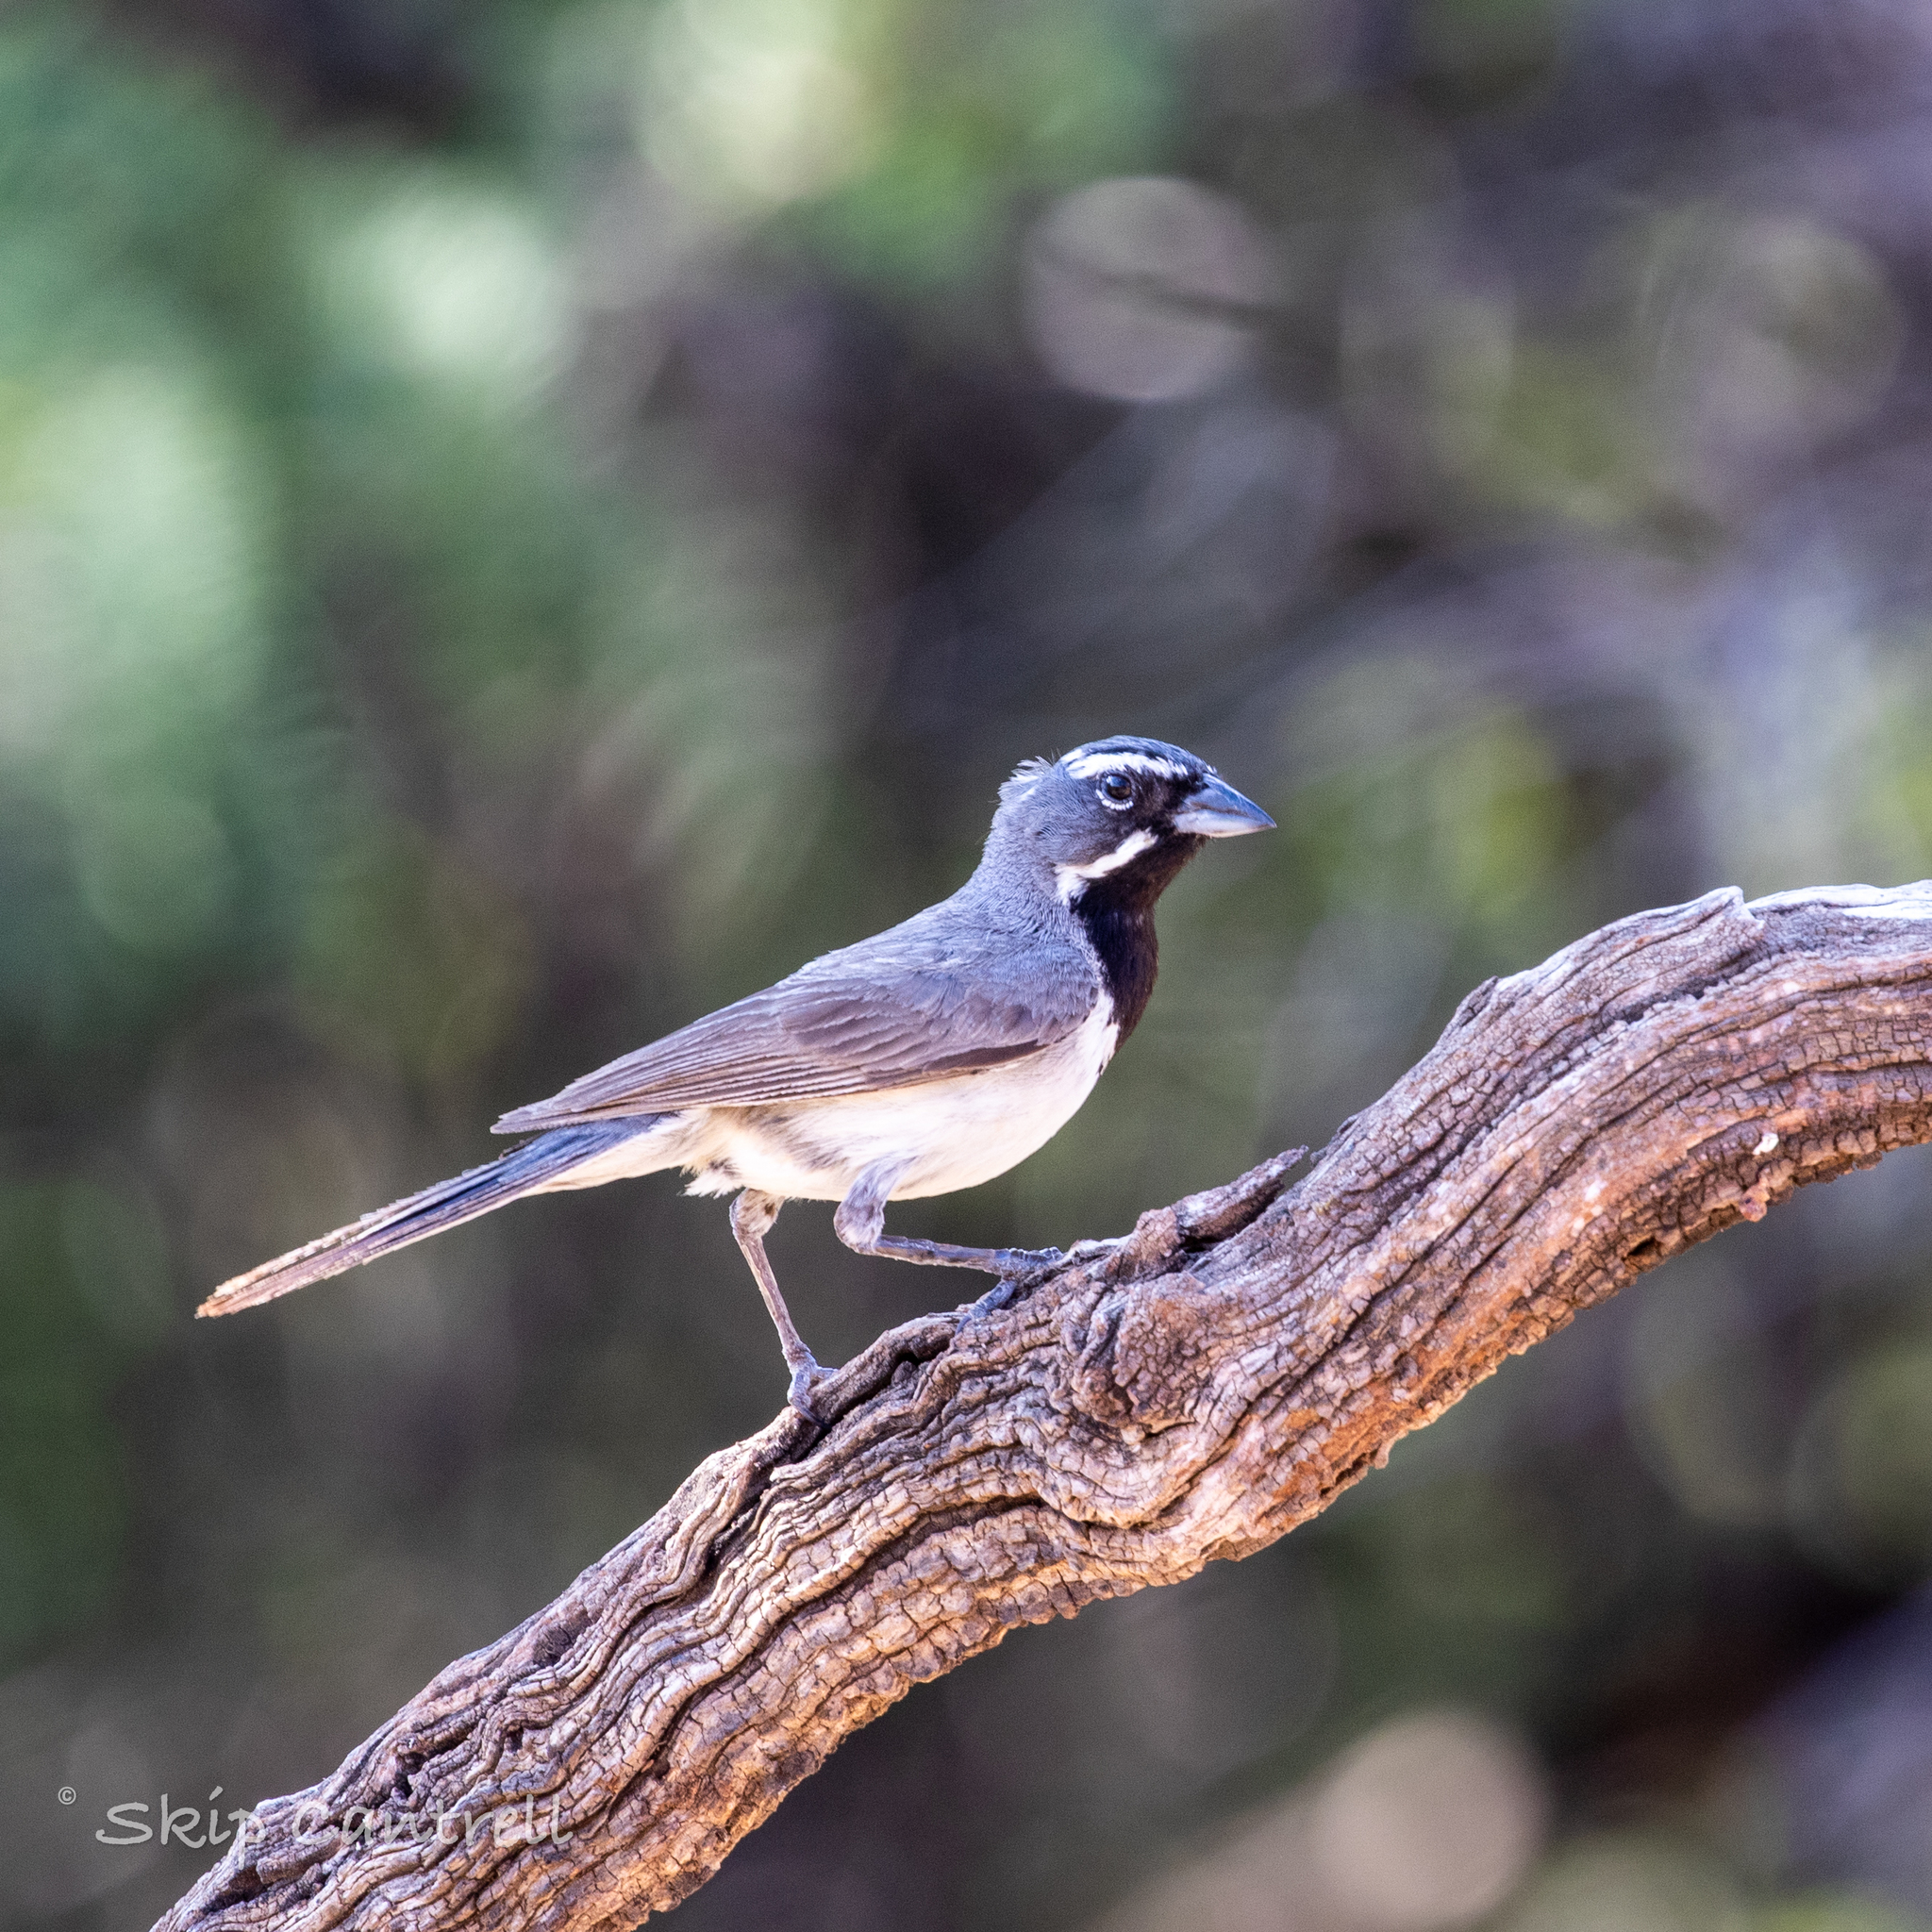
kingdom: Animalia
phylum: Chordata
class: Aves
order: Passeriformes
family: Passerellidae
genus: Amphispiza
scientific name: Amphispiza bilineata
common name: Black-throated sparrow
